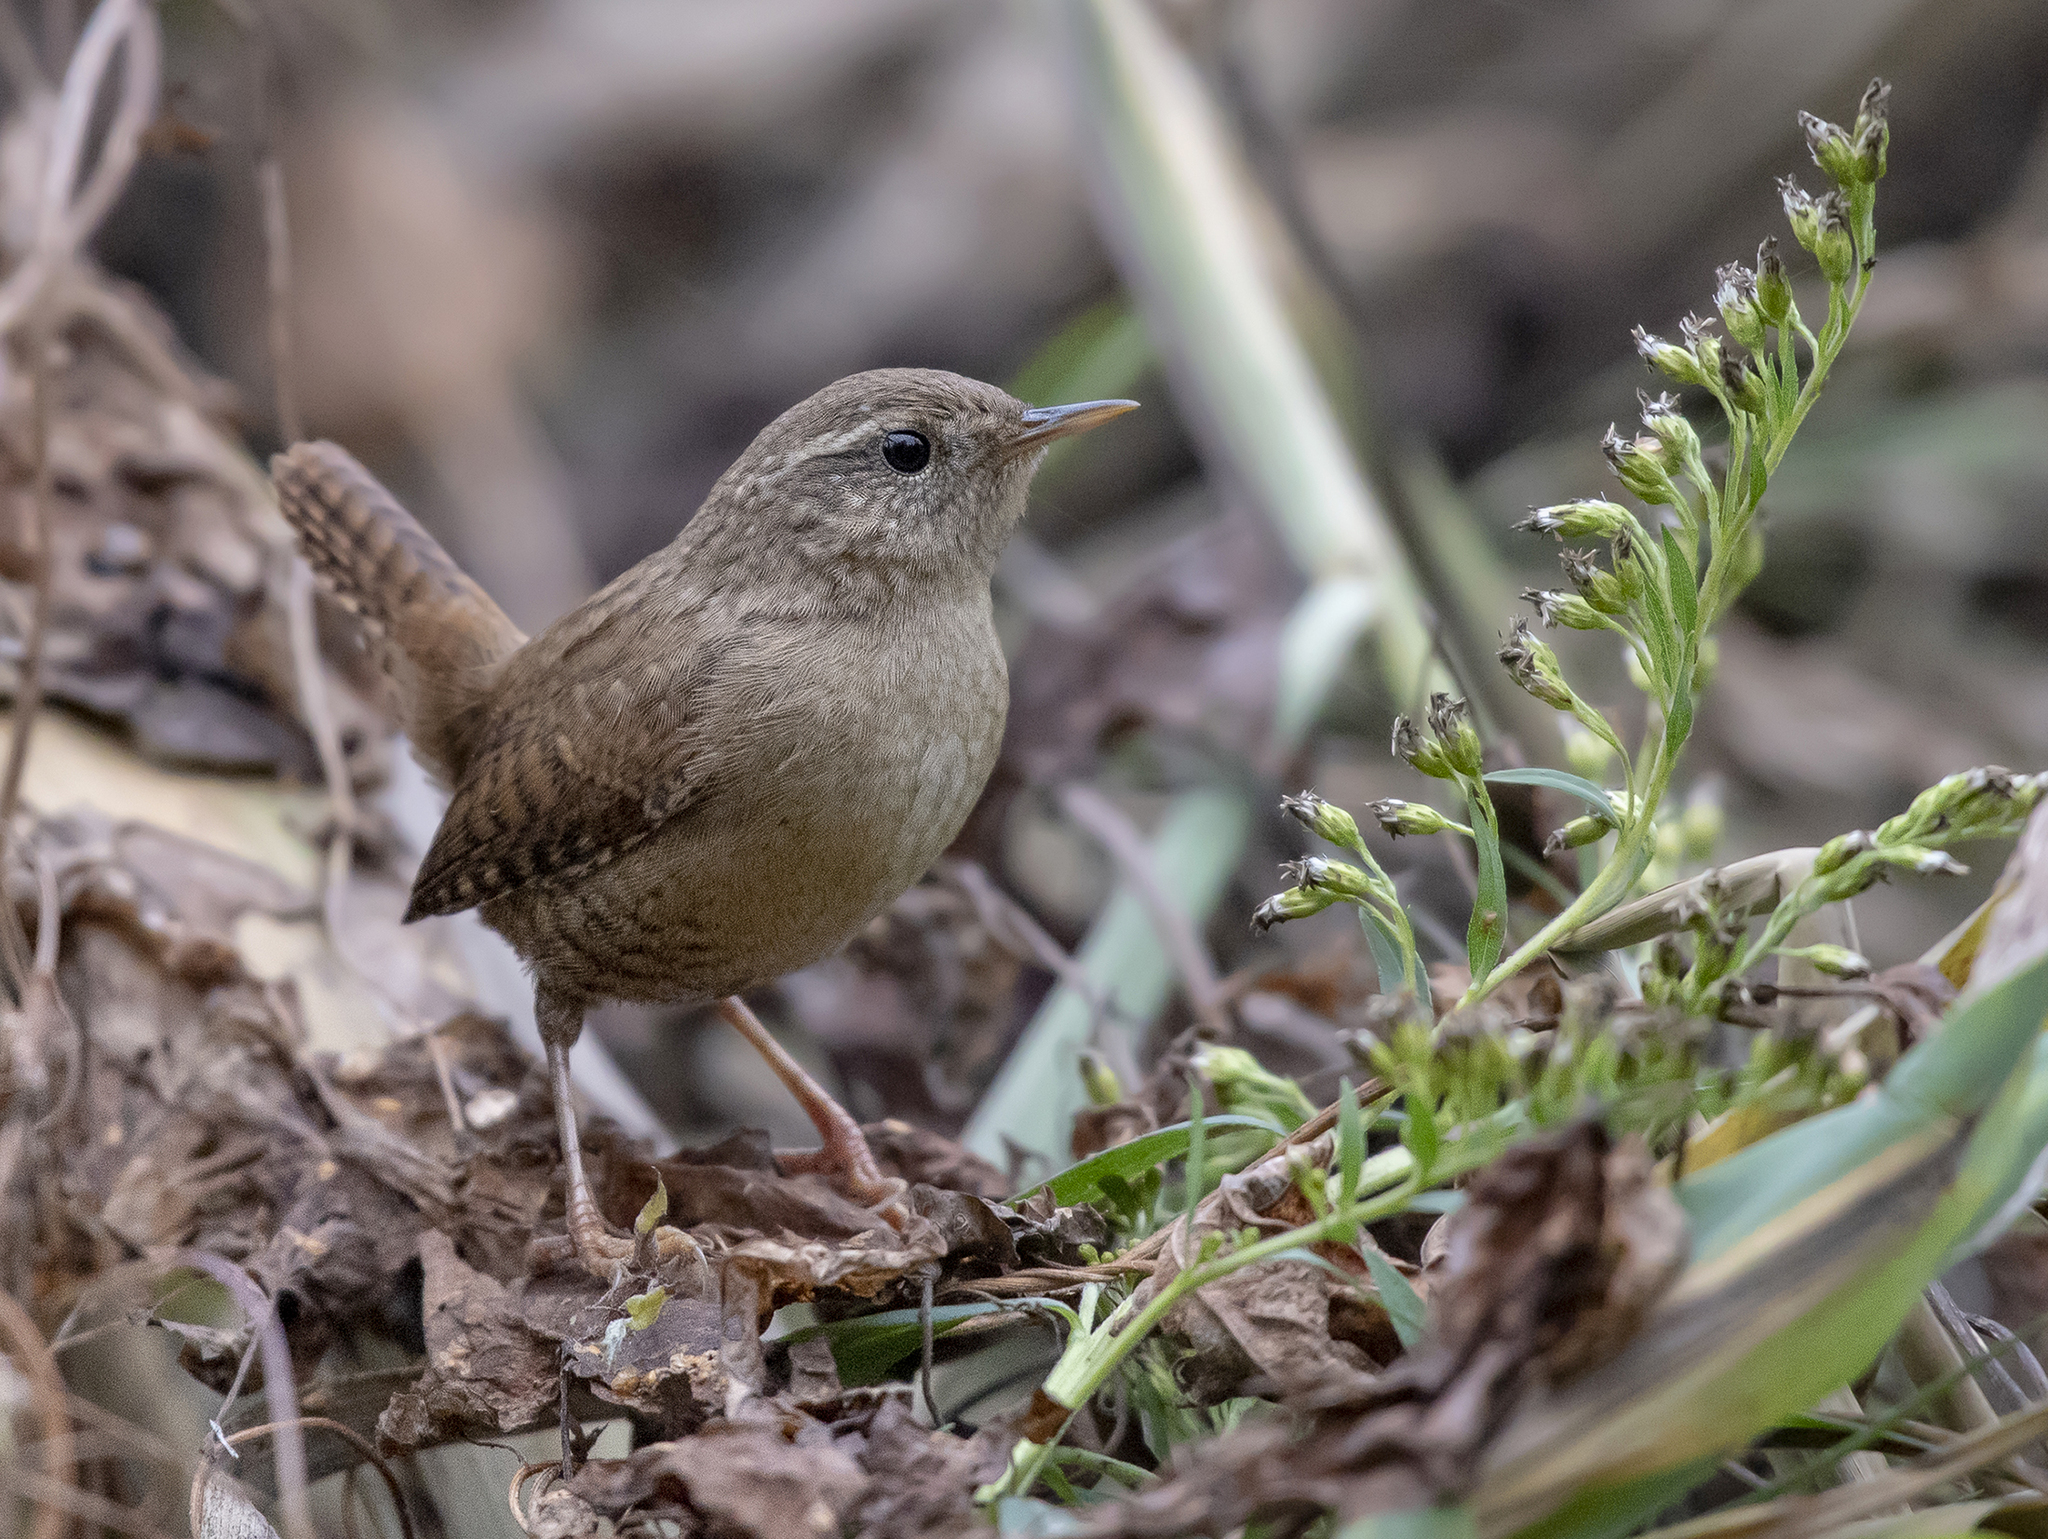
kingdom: Animalia
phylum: Chordata
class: Aves
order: Passeriformes
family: Troglodytidae
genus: Troglodytes
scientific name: Troglodytes troglodytes
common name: Eurasian wren
